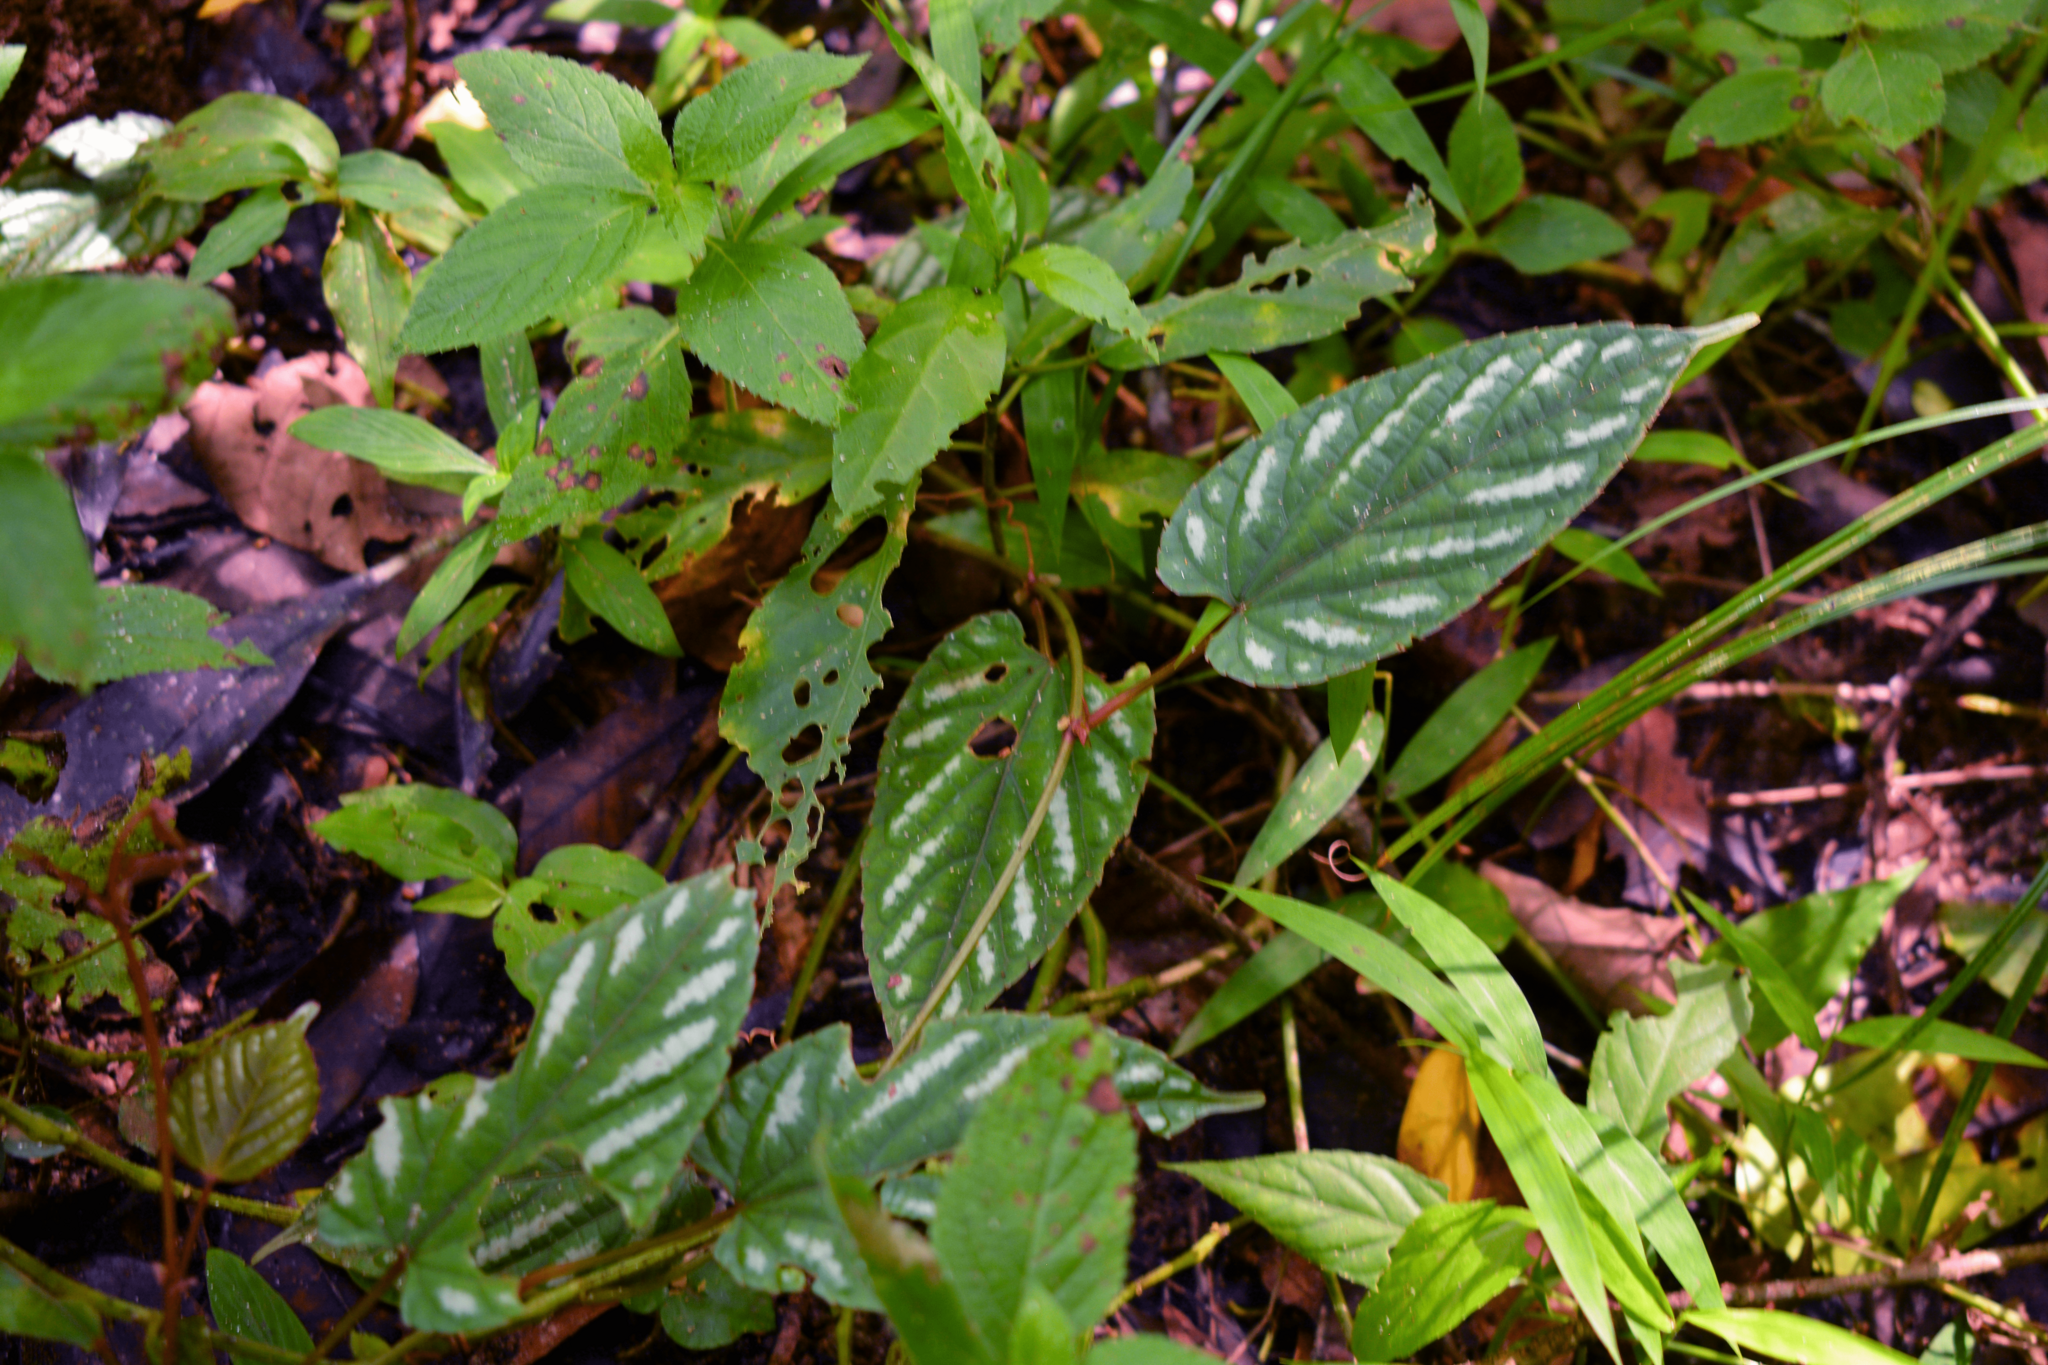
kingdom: Plantae
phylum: Tracheophyta
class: Magnoliopsida
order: Vitales
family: Vitaceae
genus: Cissus
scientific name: Cissus discolor
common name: Climbing-begonia
